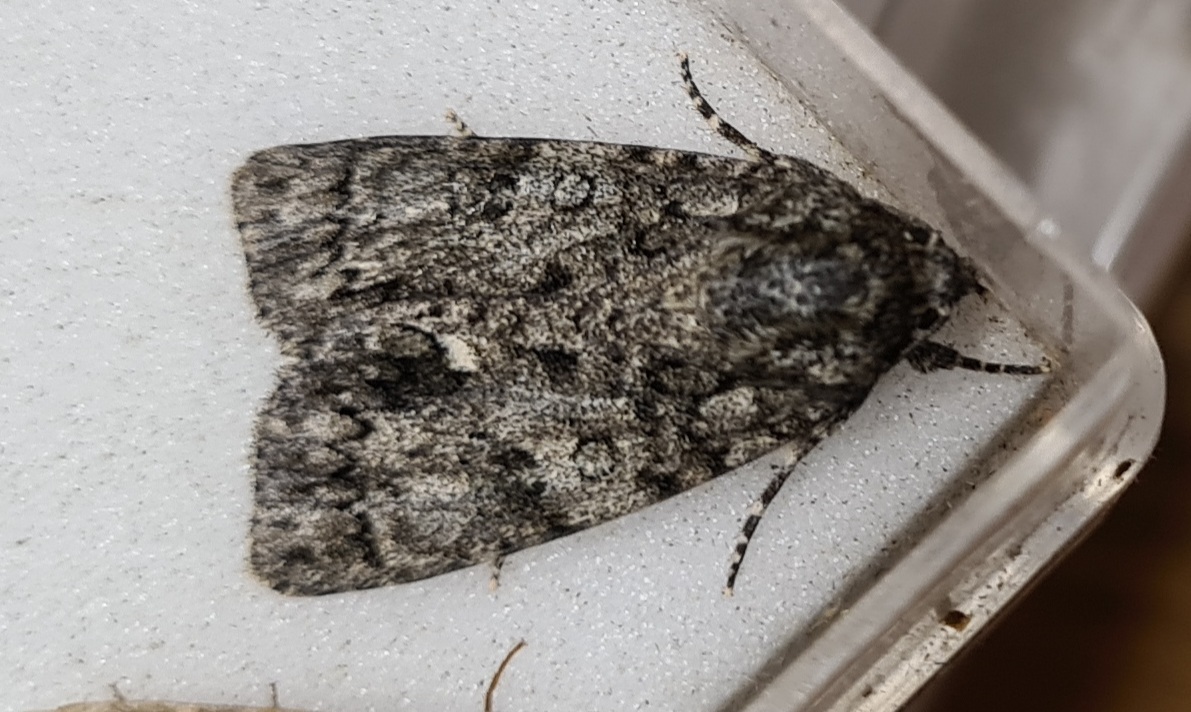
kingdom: Animalia
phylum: Arthropoda
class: Insecta
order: Lepidoptera
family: Noctuidae
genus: Acronicta
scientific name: Acronicta rumicis
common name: Knot grass
